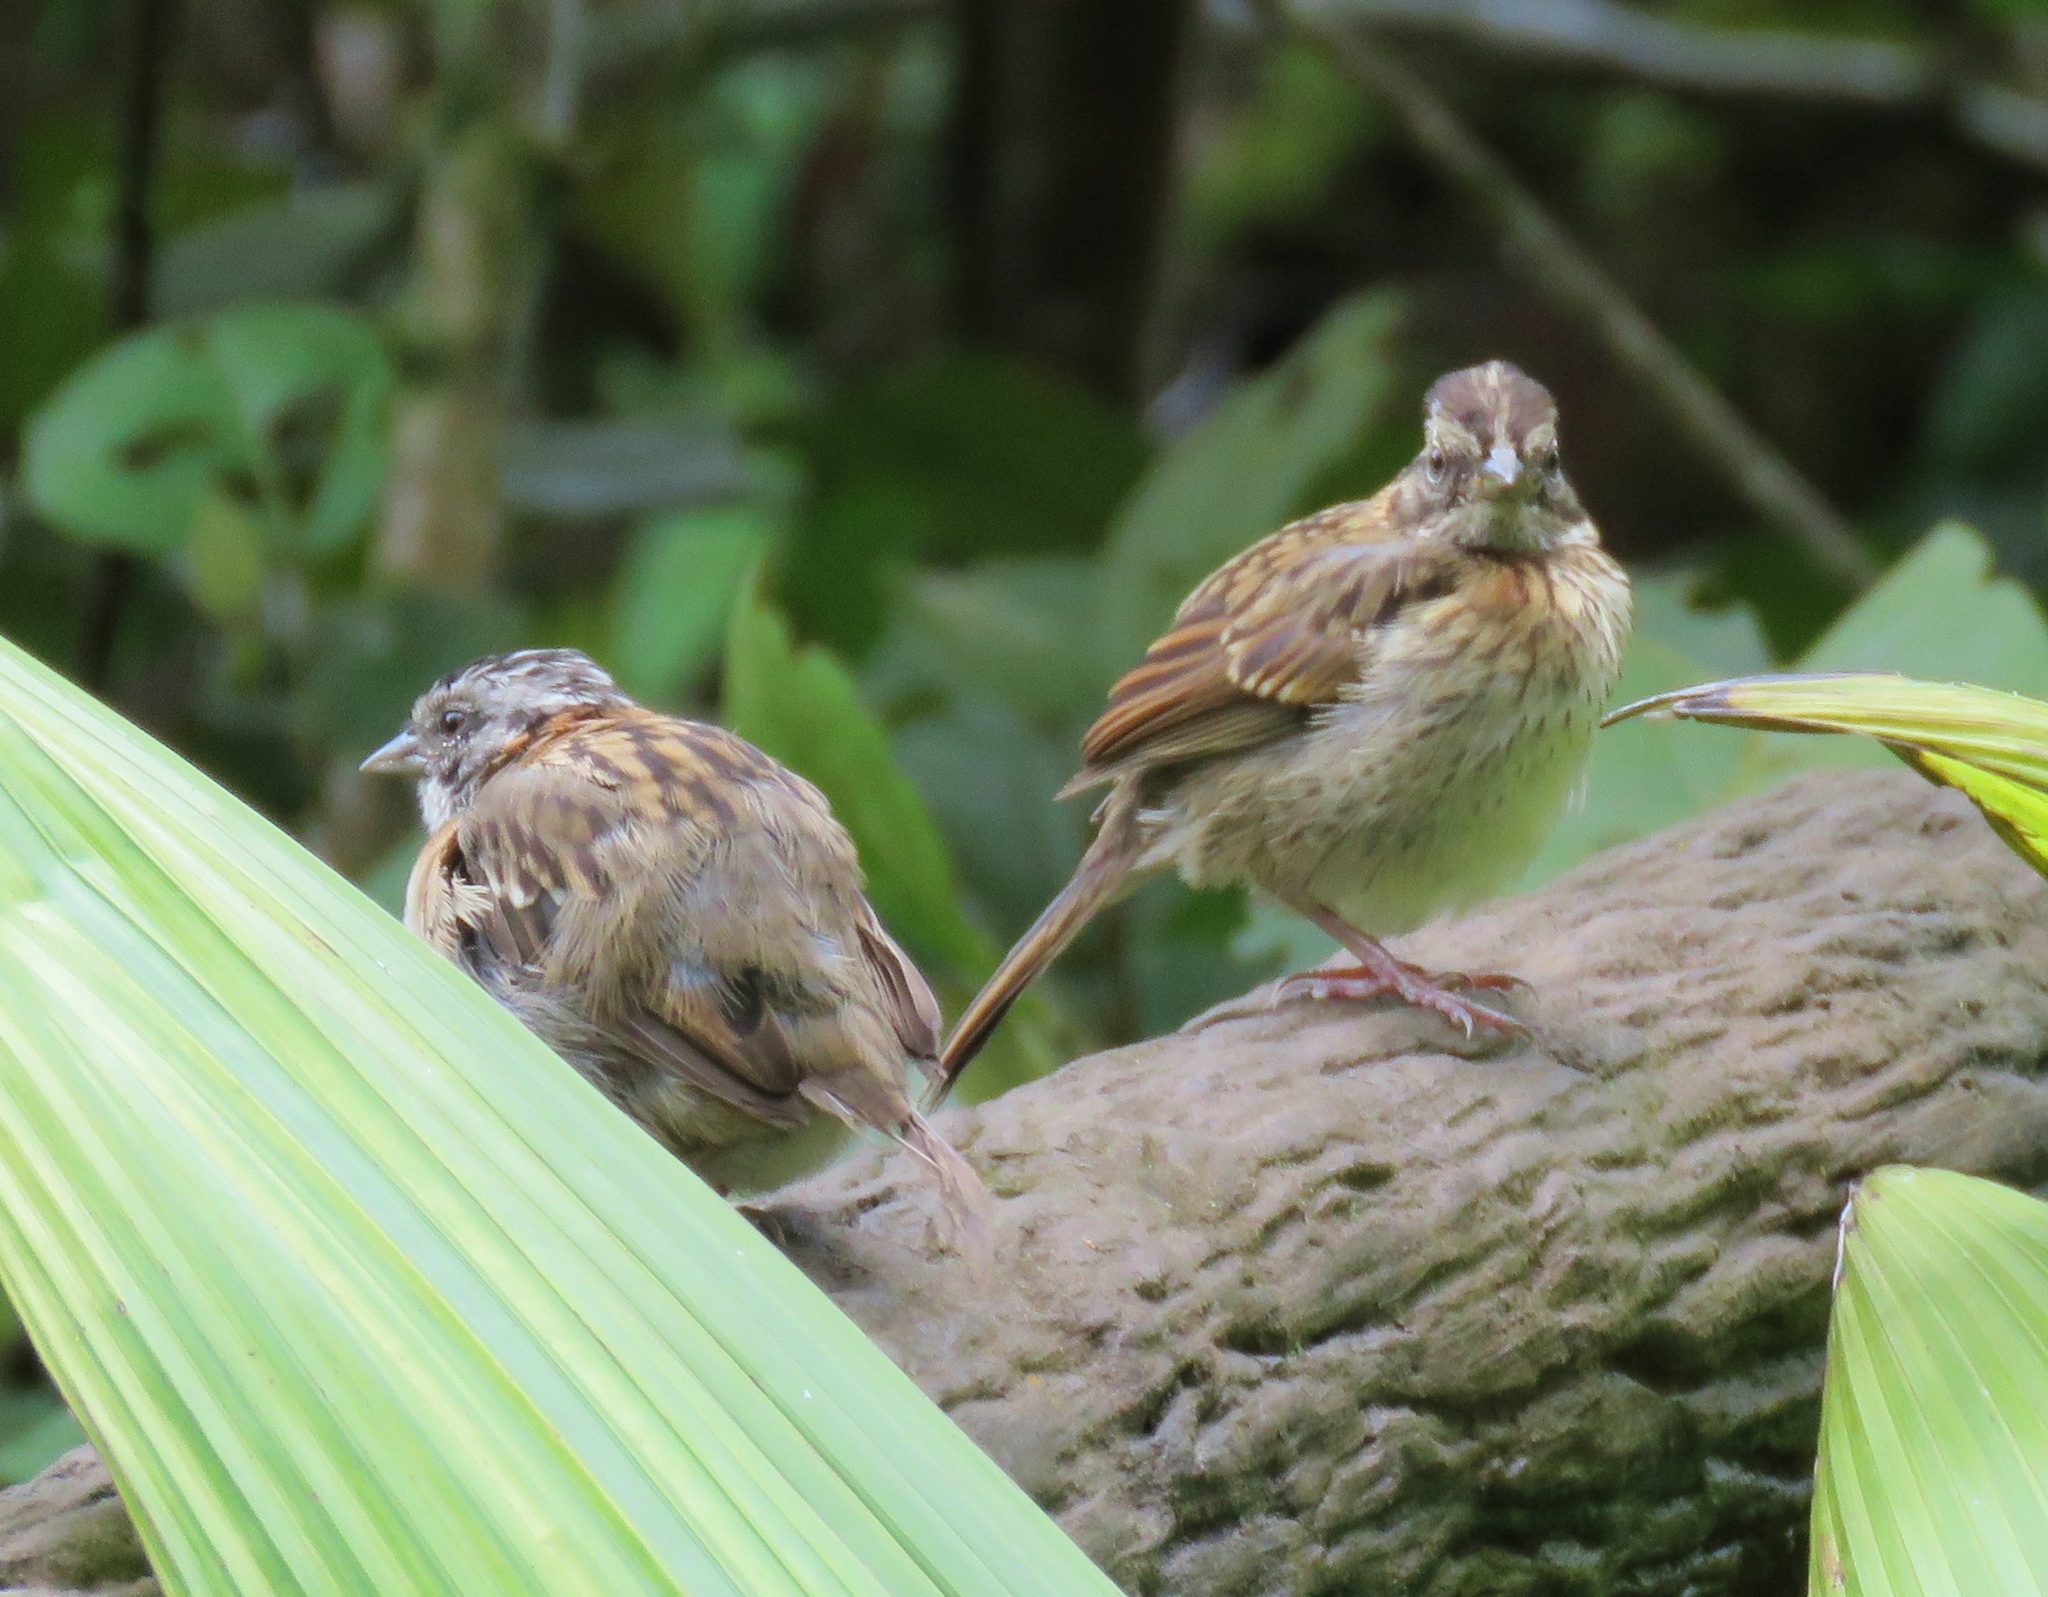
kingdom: Animalia
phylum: Chordata
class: Aves
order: Passeriformes
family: Passerellidae
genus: Zonotrichia
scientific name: Zonotrichia capensis
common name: Rufous-collared sparrow
